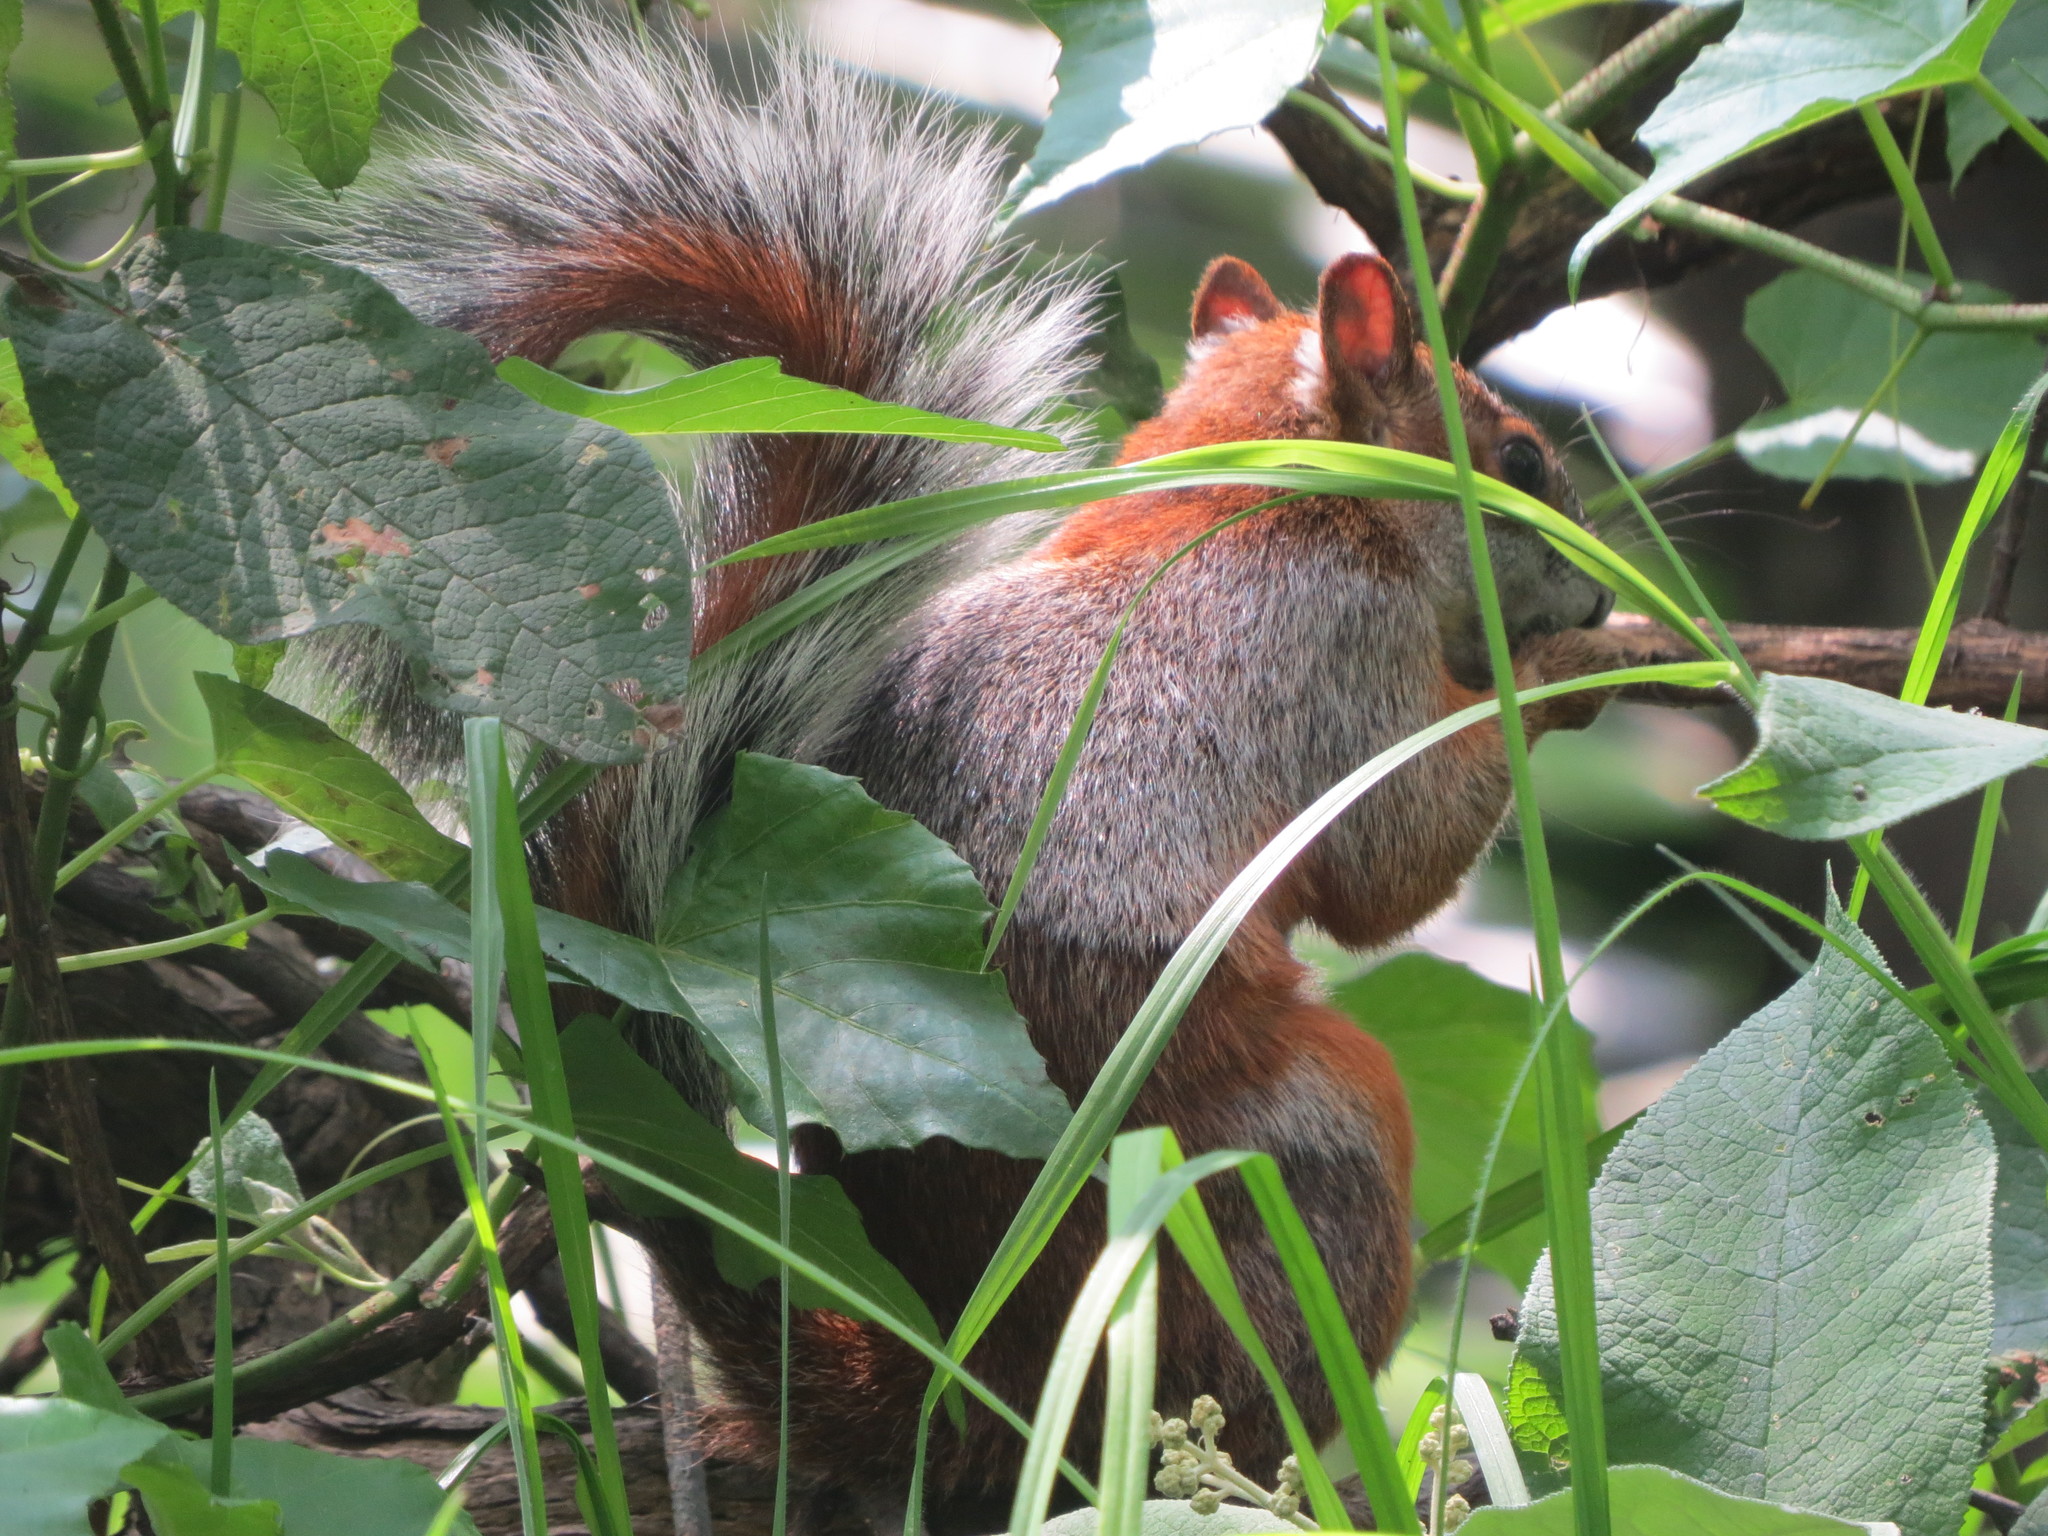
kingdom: Animalia
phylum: Chordata
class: Mammalia
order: Rodentia
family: Sciuridae
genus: Sciurus
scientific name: Sciurus aureogaster
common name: Red-bellied squirrel
